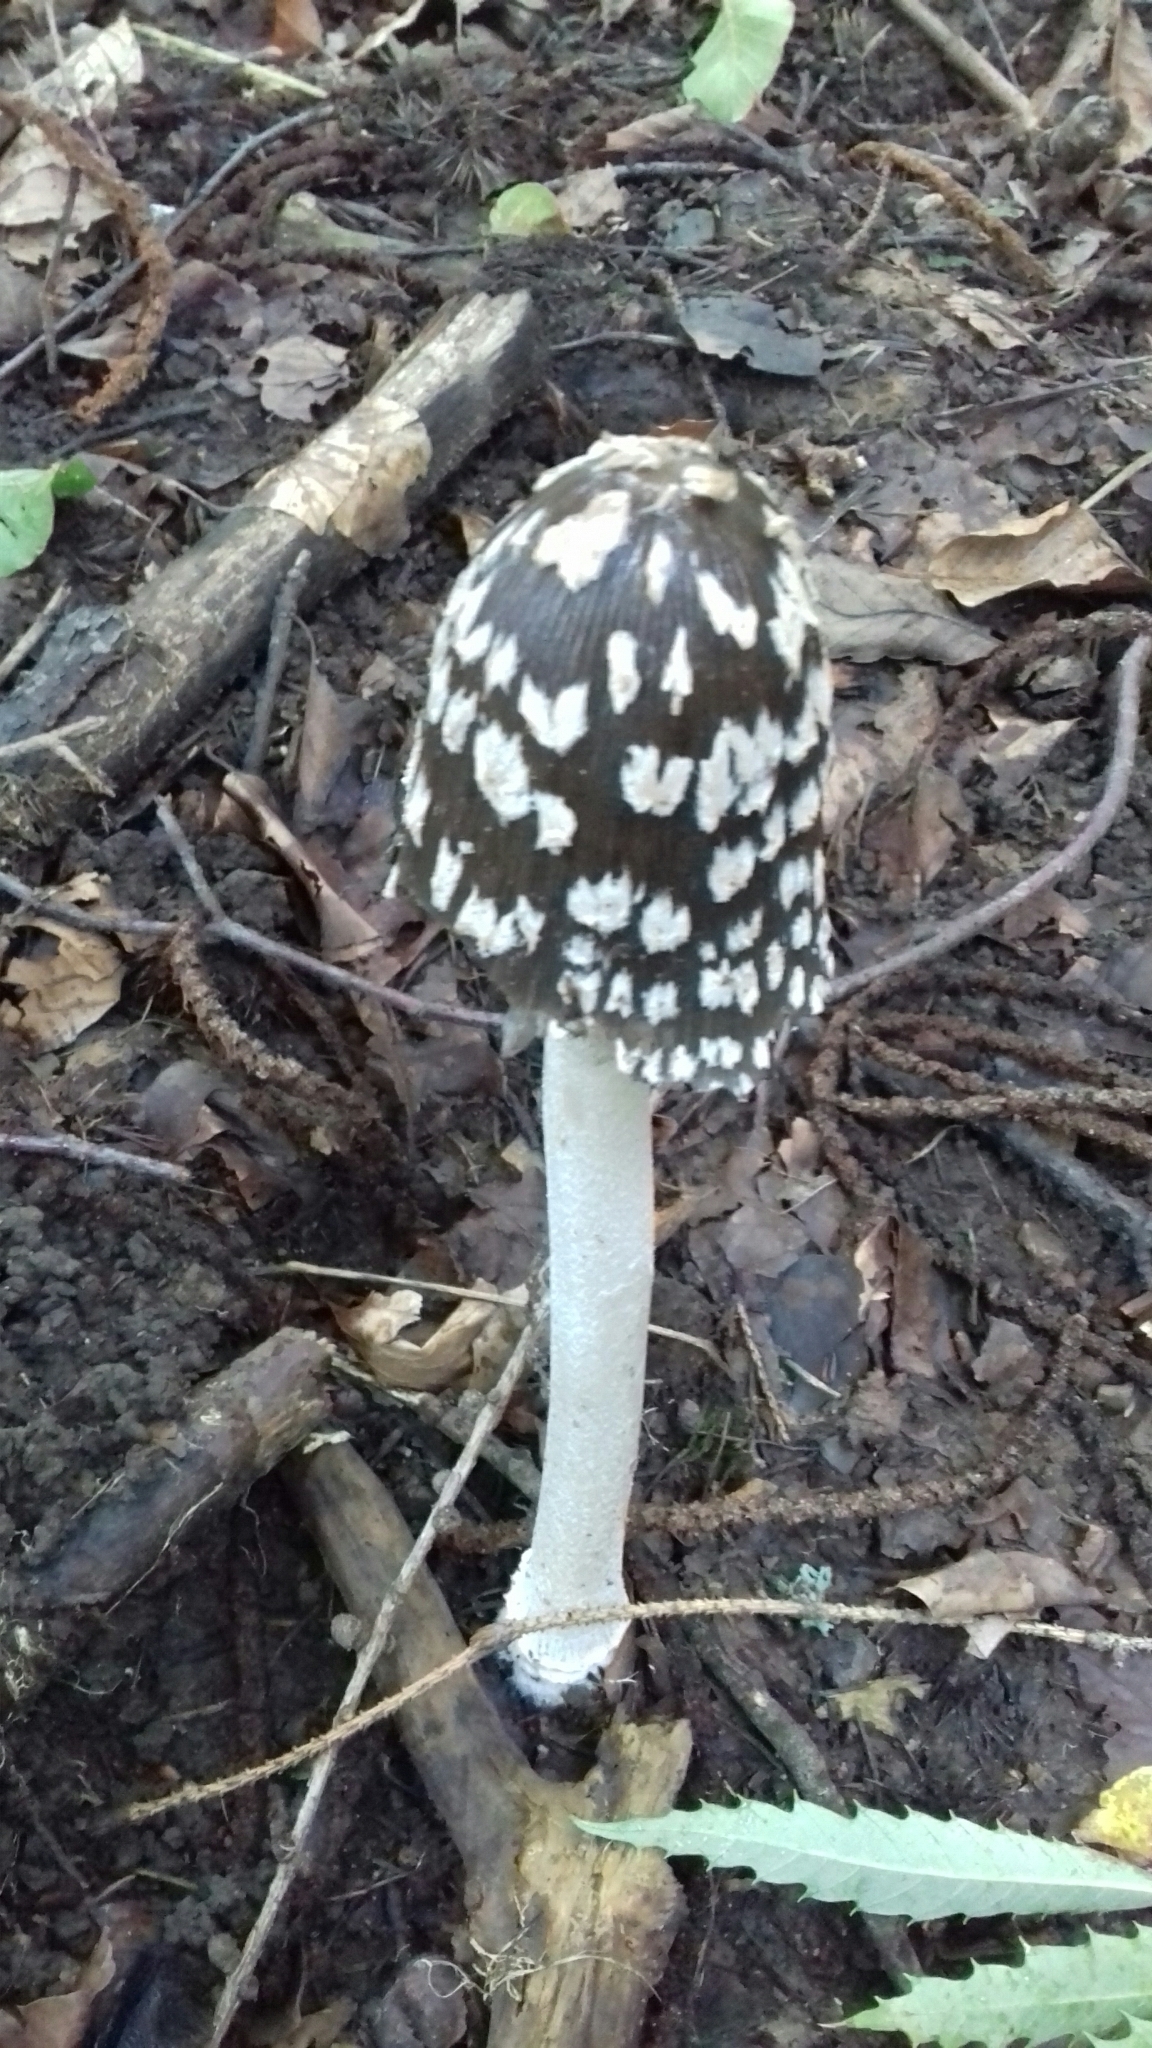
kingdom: Fungi
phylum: Basidiomycota
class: Agaricomycetes
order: Agaricales
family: Psathyrellaceae
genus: Coprinopsis
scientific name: Coprinopsis picacea
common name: Magpie inkcap
